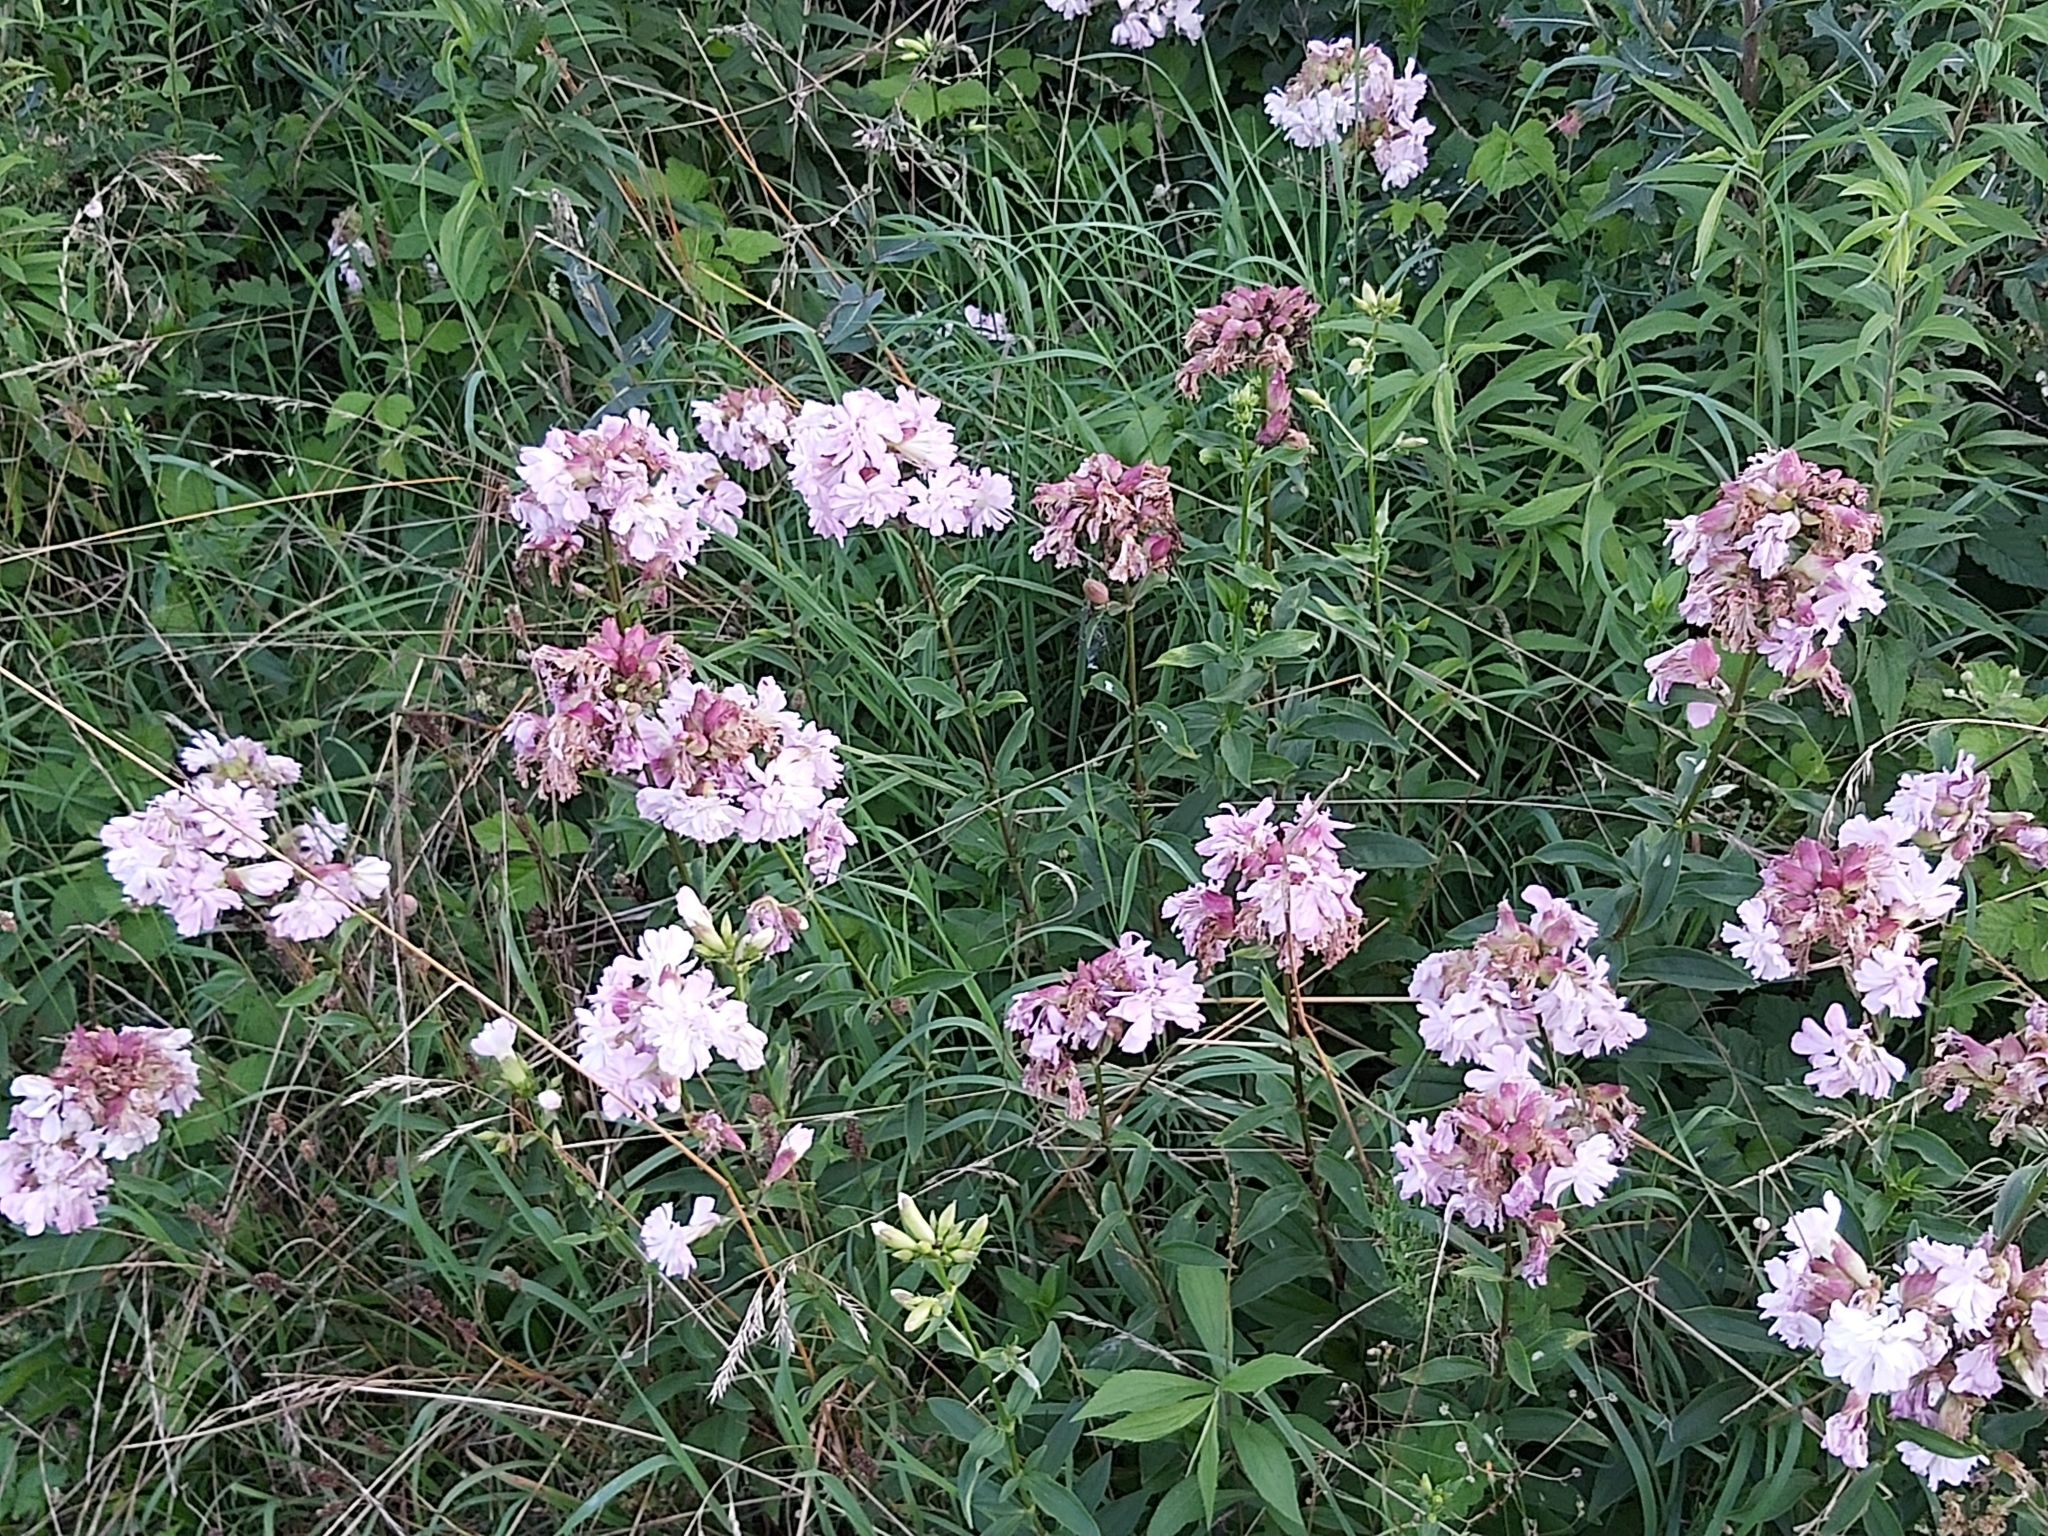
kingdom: Plantae
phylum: Tracheophyta
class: Magnoliopsida
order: Caryophyllales
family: Caryophyllaceae
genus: Saponaria
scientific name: Saponaria officinalis
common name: Soapwort
